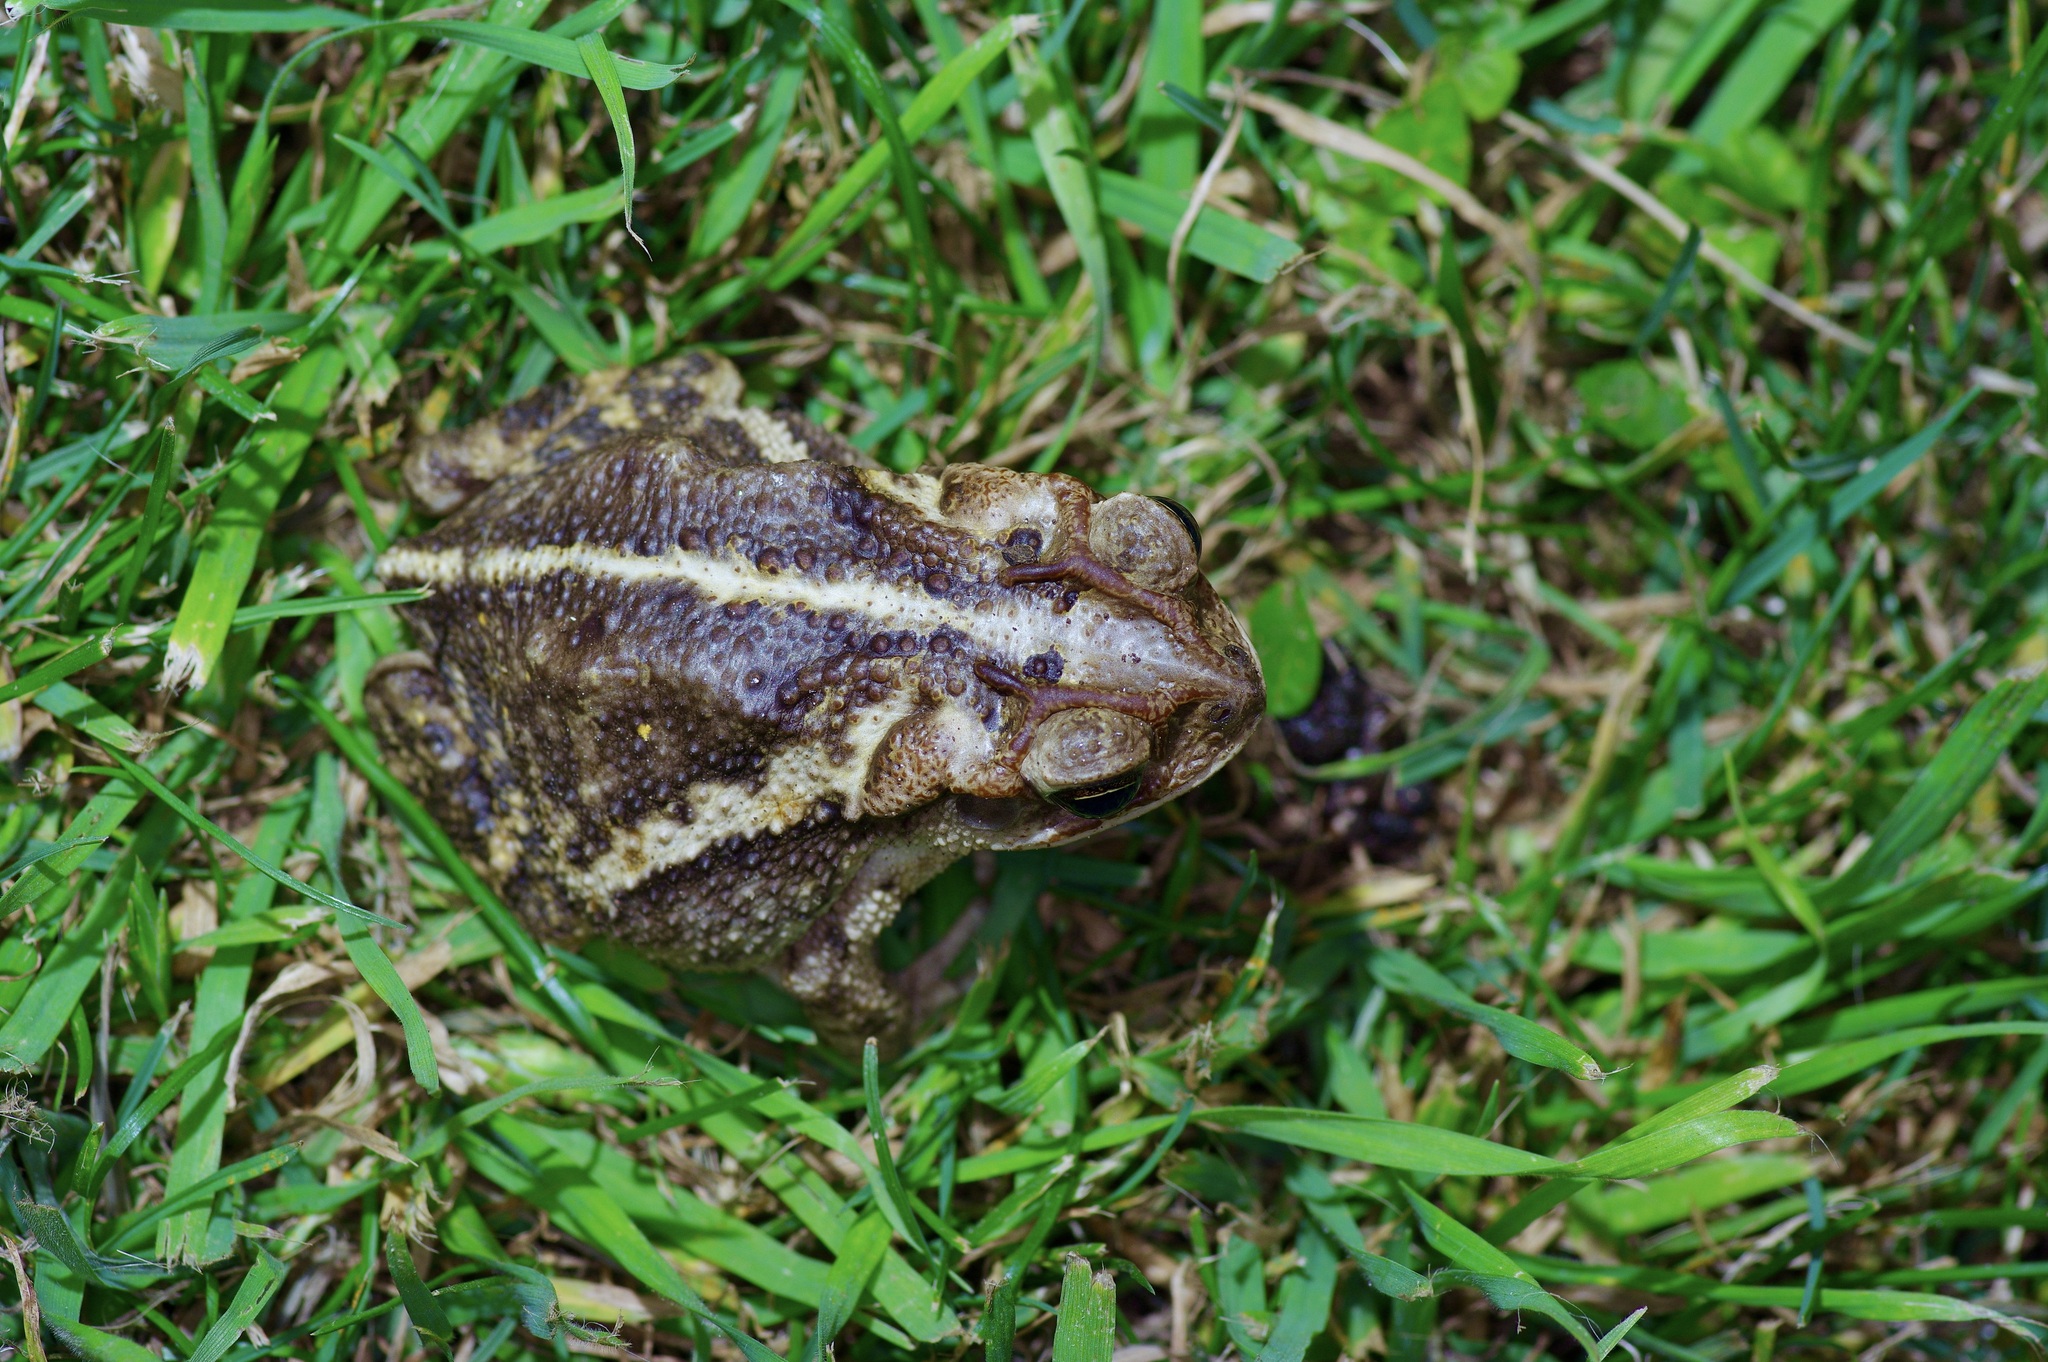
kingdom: Animalia
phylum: Chordata
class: Amphibia
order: Anura
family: Bufonidae
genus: Incilius
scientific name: Incilius nebulifer
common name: Gulf coast toad
